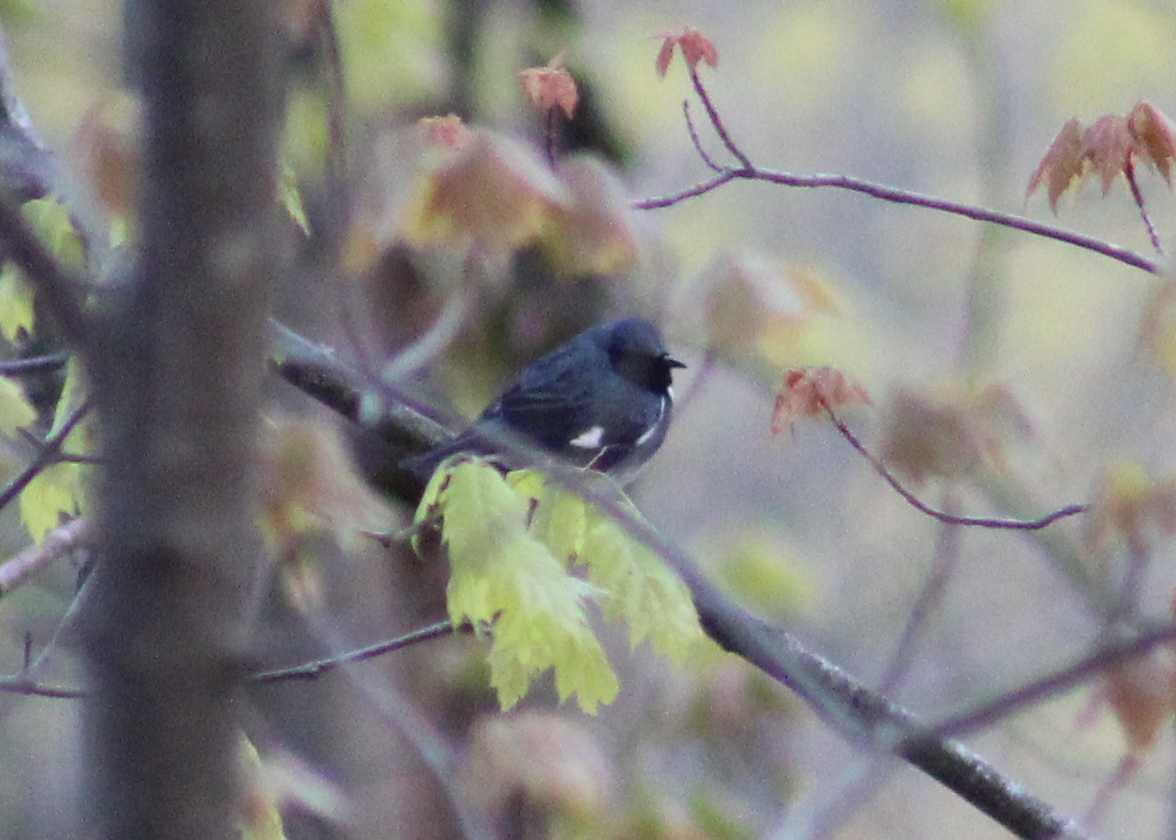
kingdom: Animalia
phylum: Chordata
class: Aves
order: Passeriformes
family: Parulidae
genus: Setophaga
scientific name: Setophaga caerulescens
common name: Black-throated blue warbler
